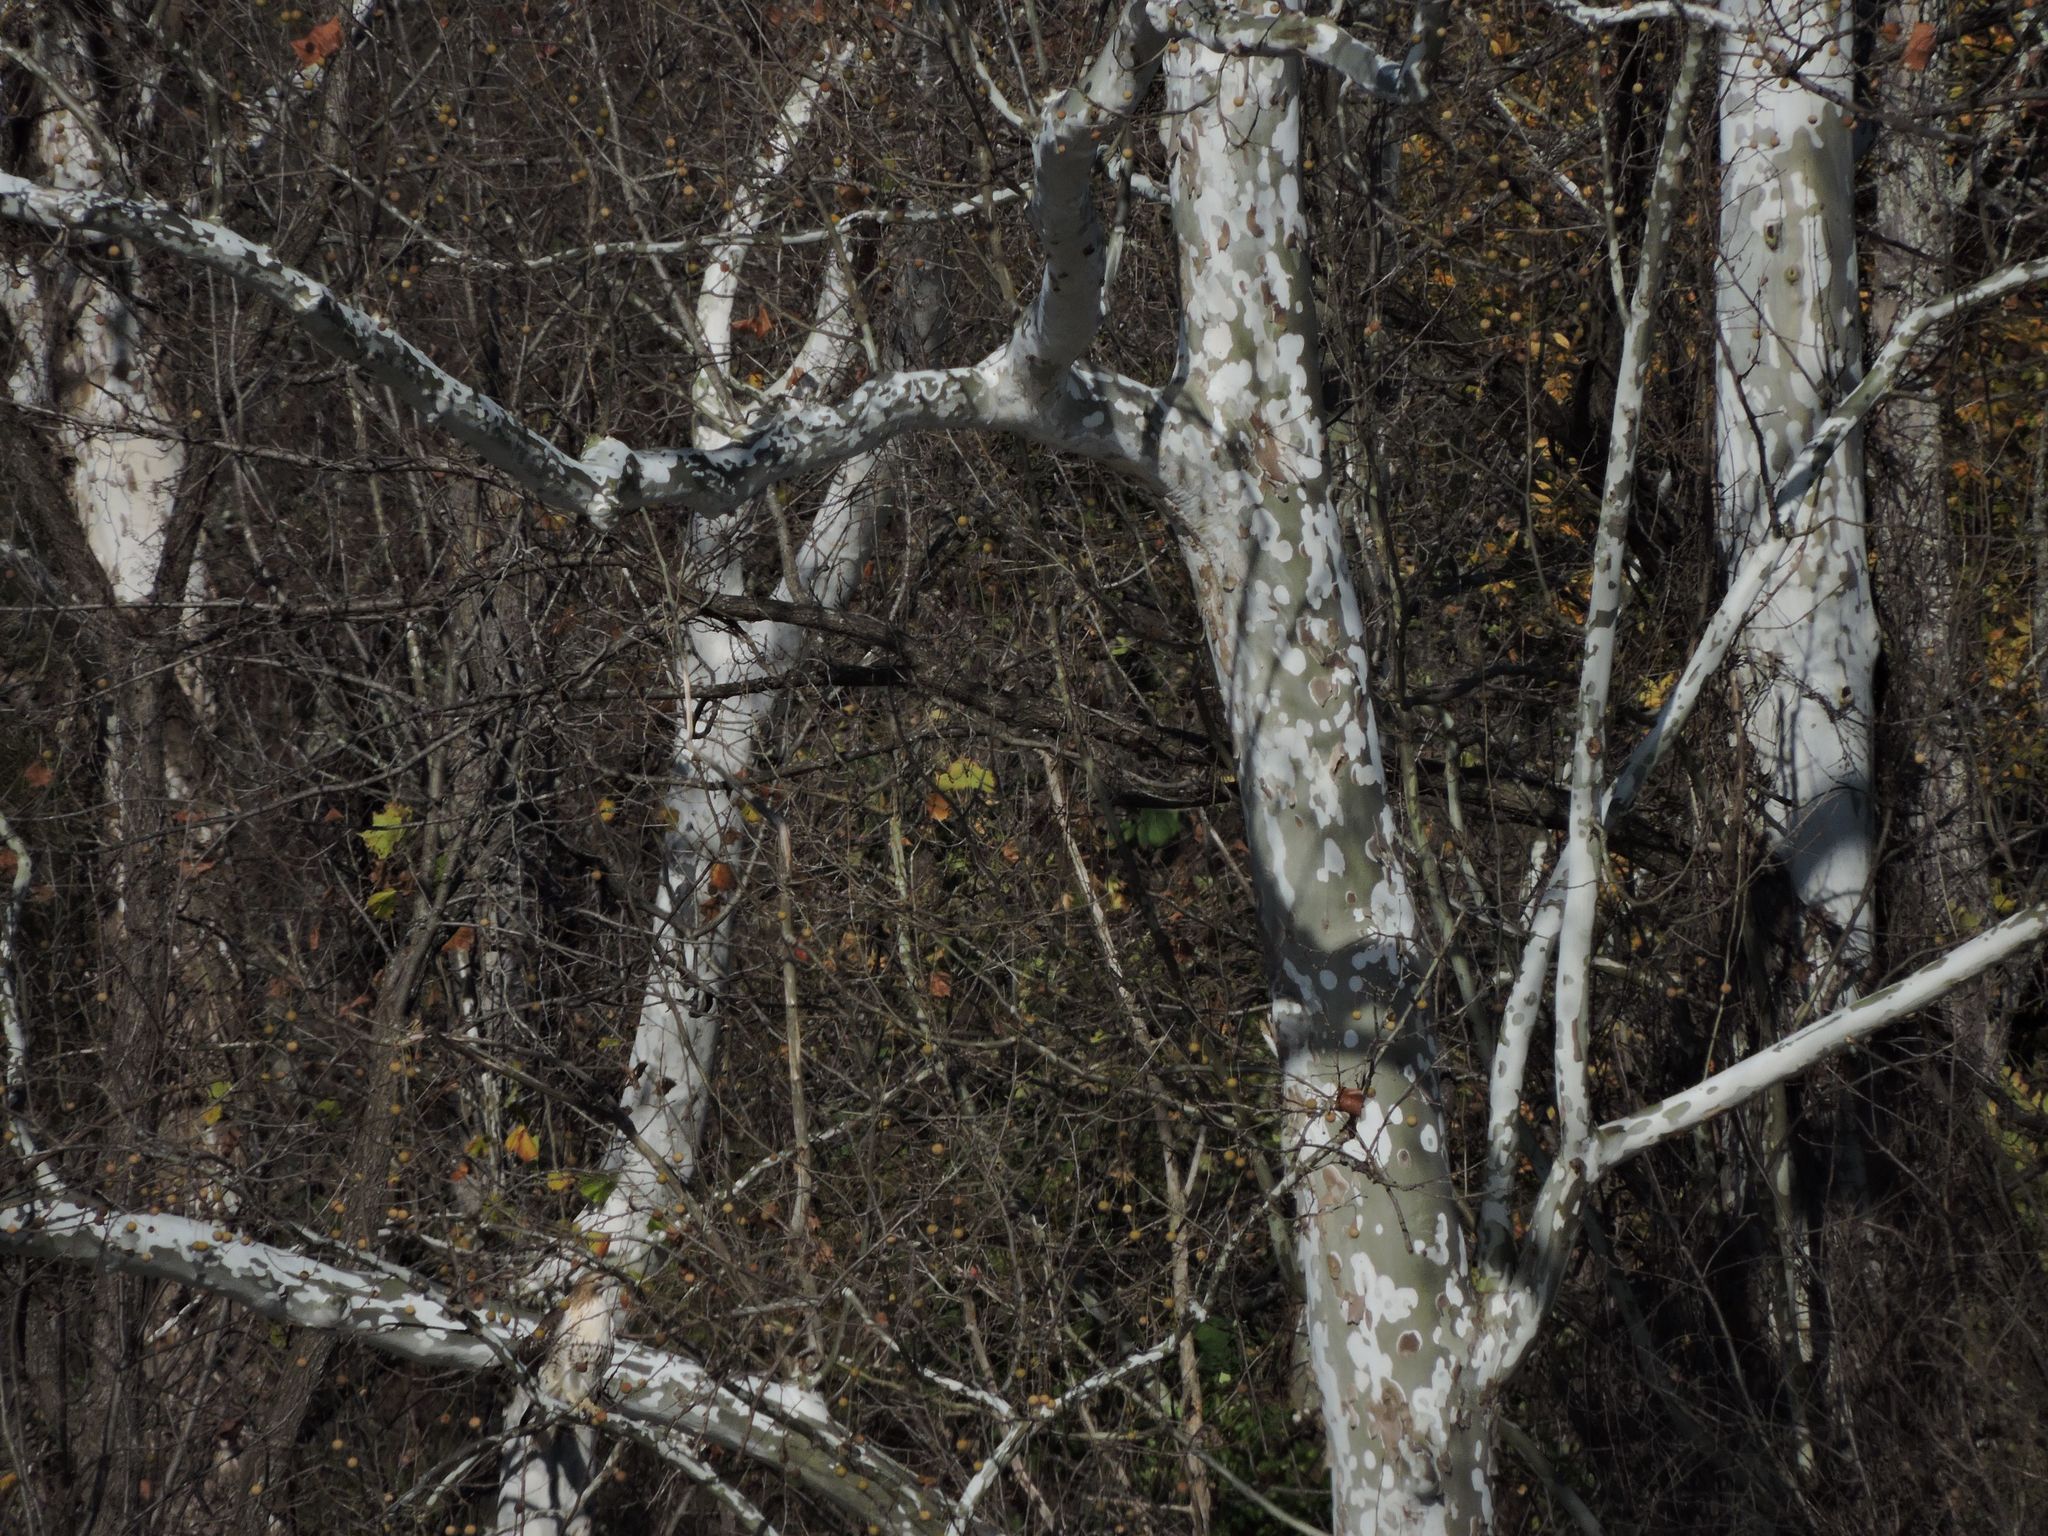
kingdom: Animalia
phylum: Chordata
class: Aves
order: Accipitriformes
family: Accipitridae
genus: Buteo
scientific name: Buteo jamaicensis
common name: Red-tailed hawk
